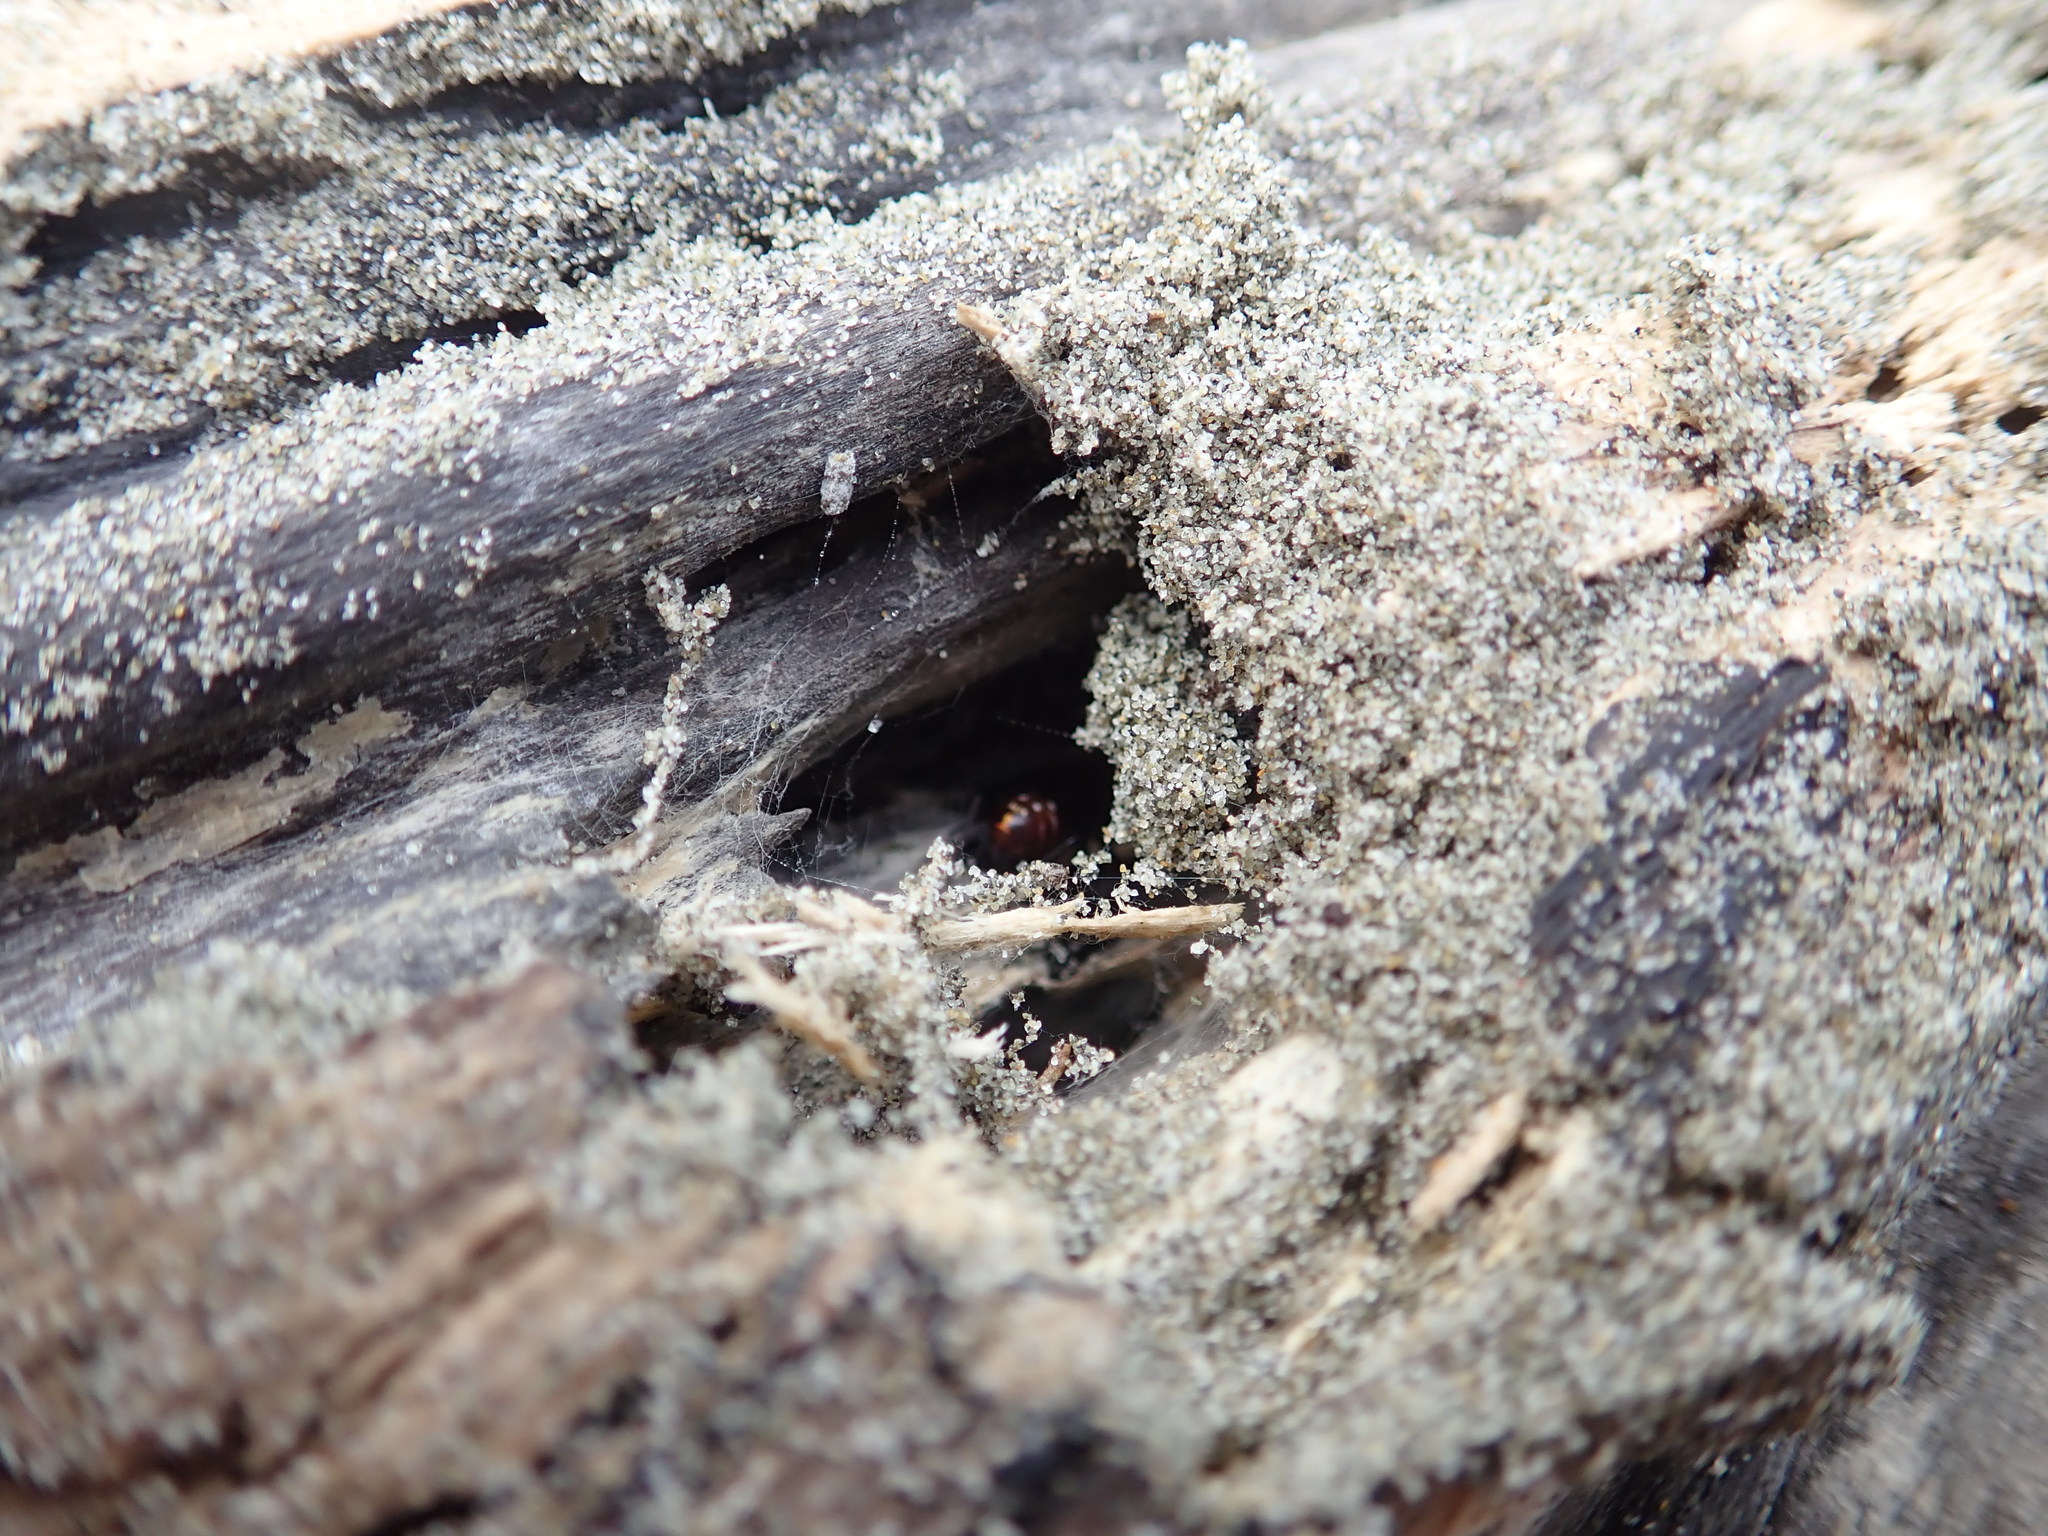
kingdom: Animalia
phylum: Arthropoda
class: Arachnida
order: Araneae
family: Theridiidae
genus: Steatoda
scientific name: Steatoda capensis
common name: Cobweb weaver
